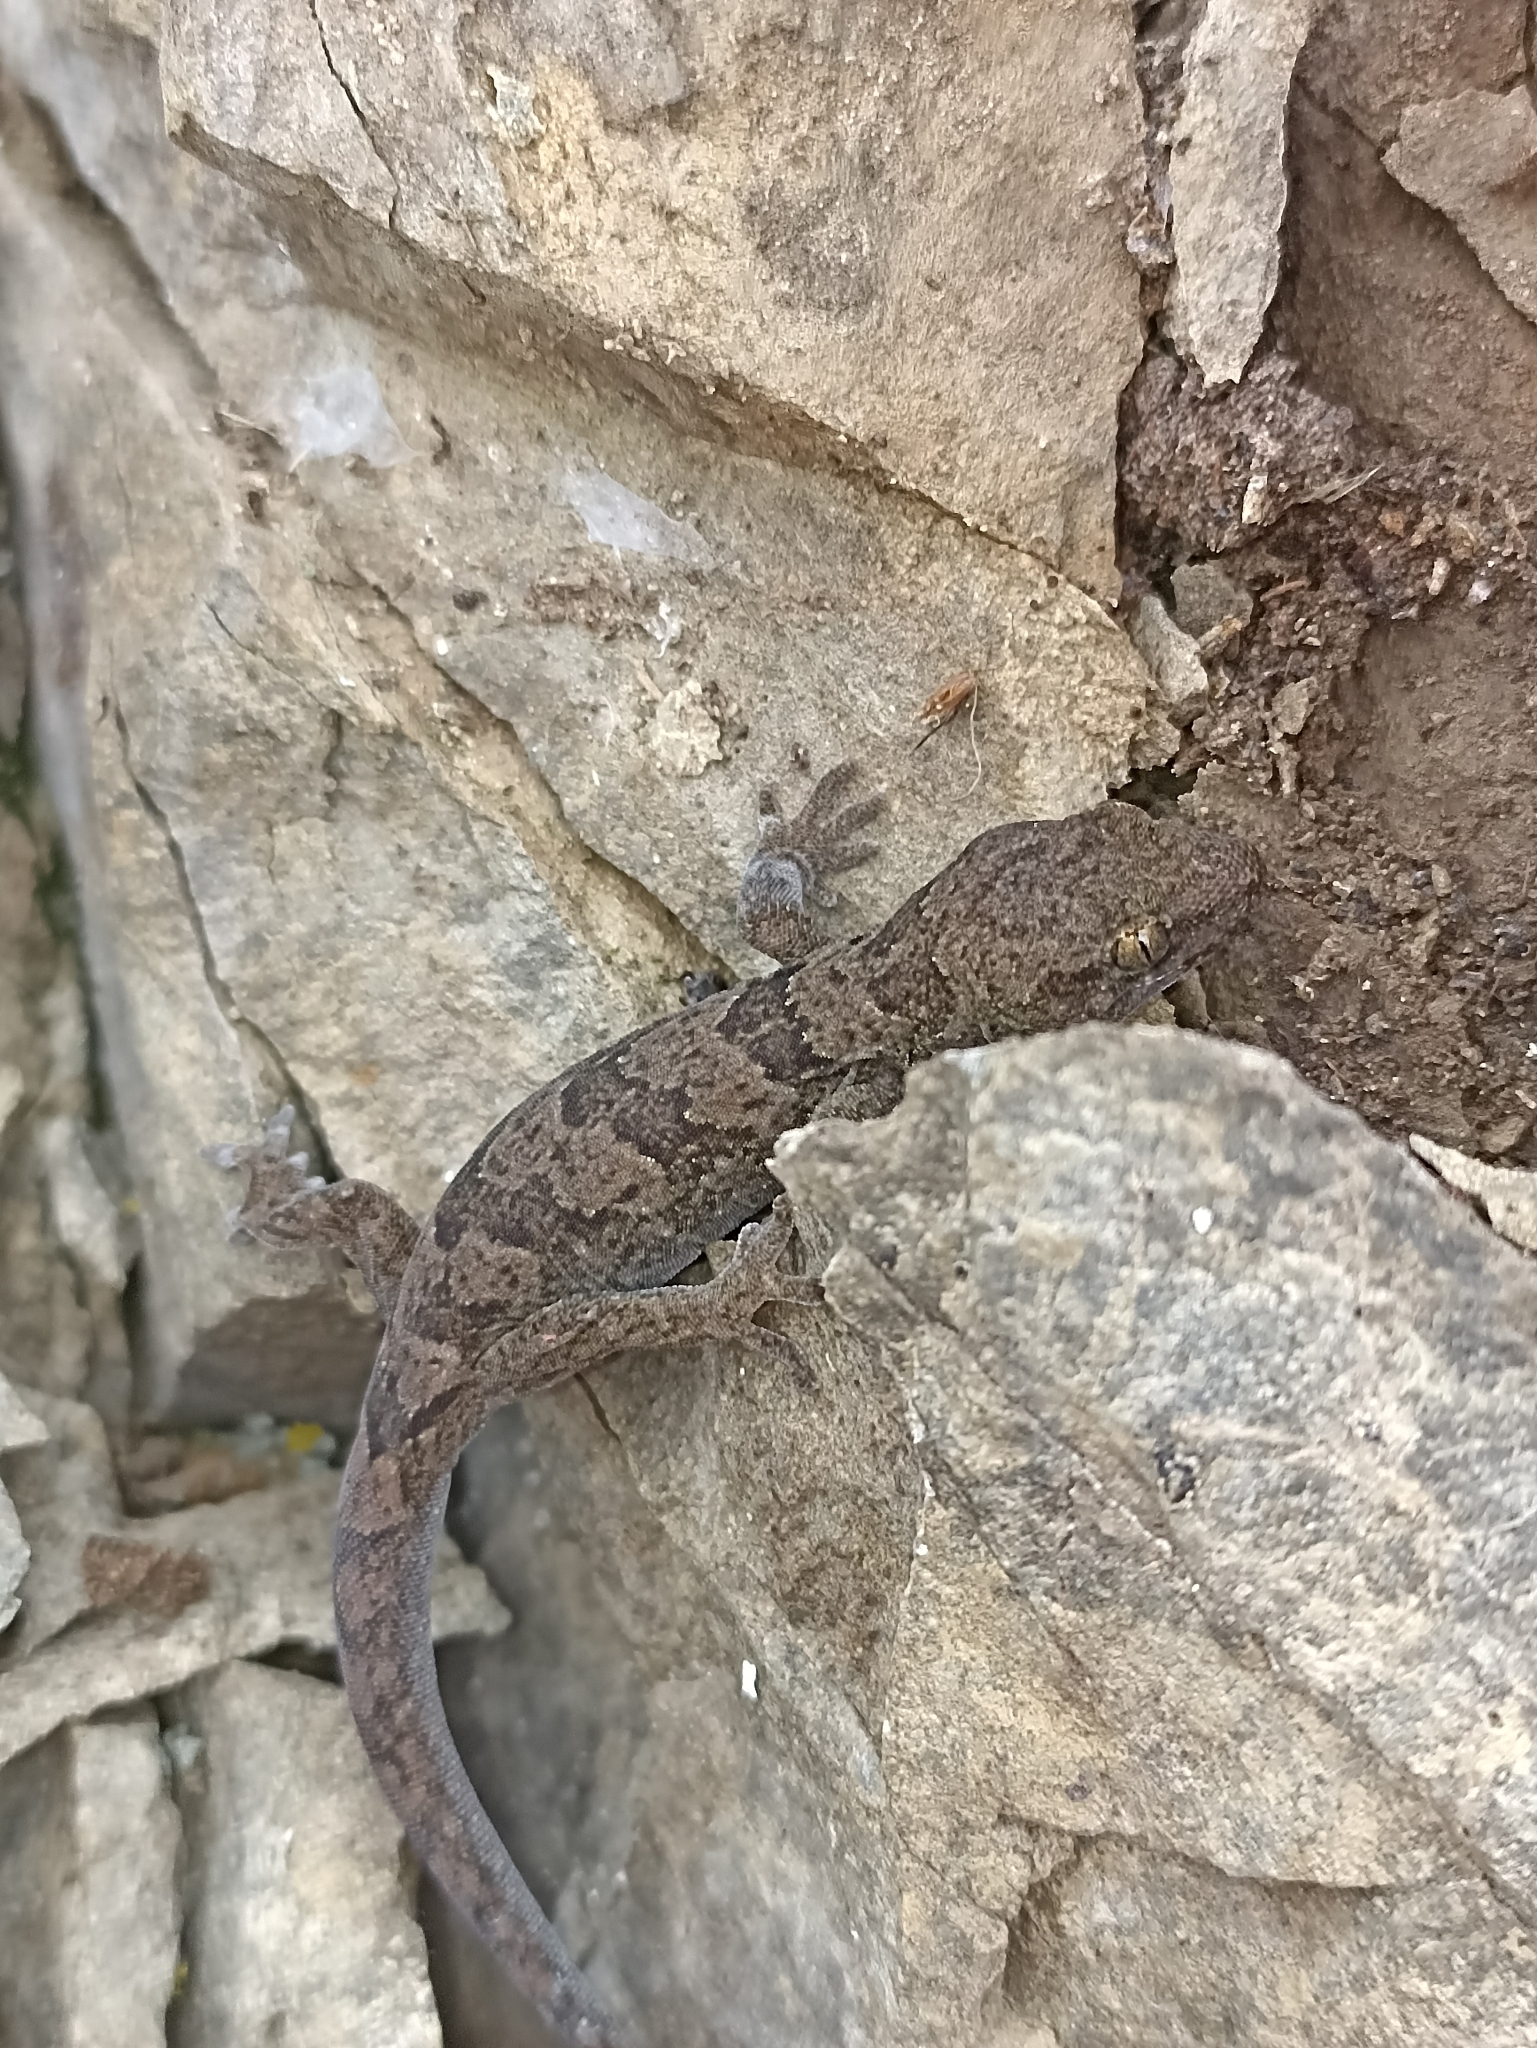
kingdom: Animalia
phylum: Chordata
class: Squamata
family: Diplodactylidae
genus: Woodworthia
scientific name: Woodworthia
